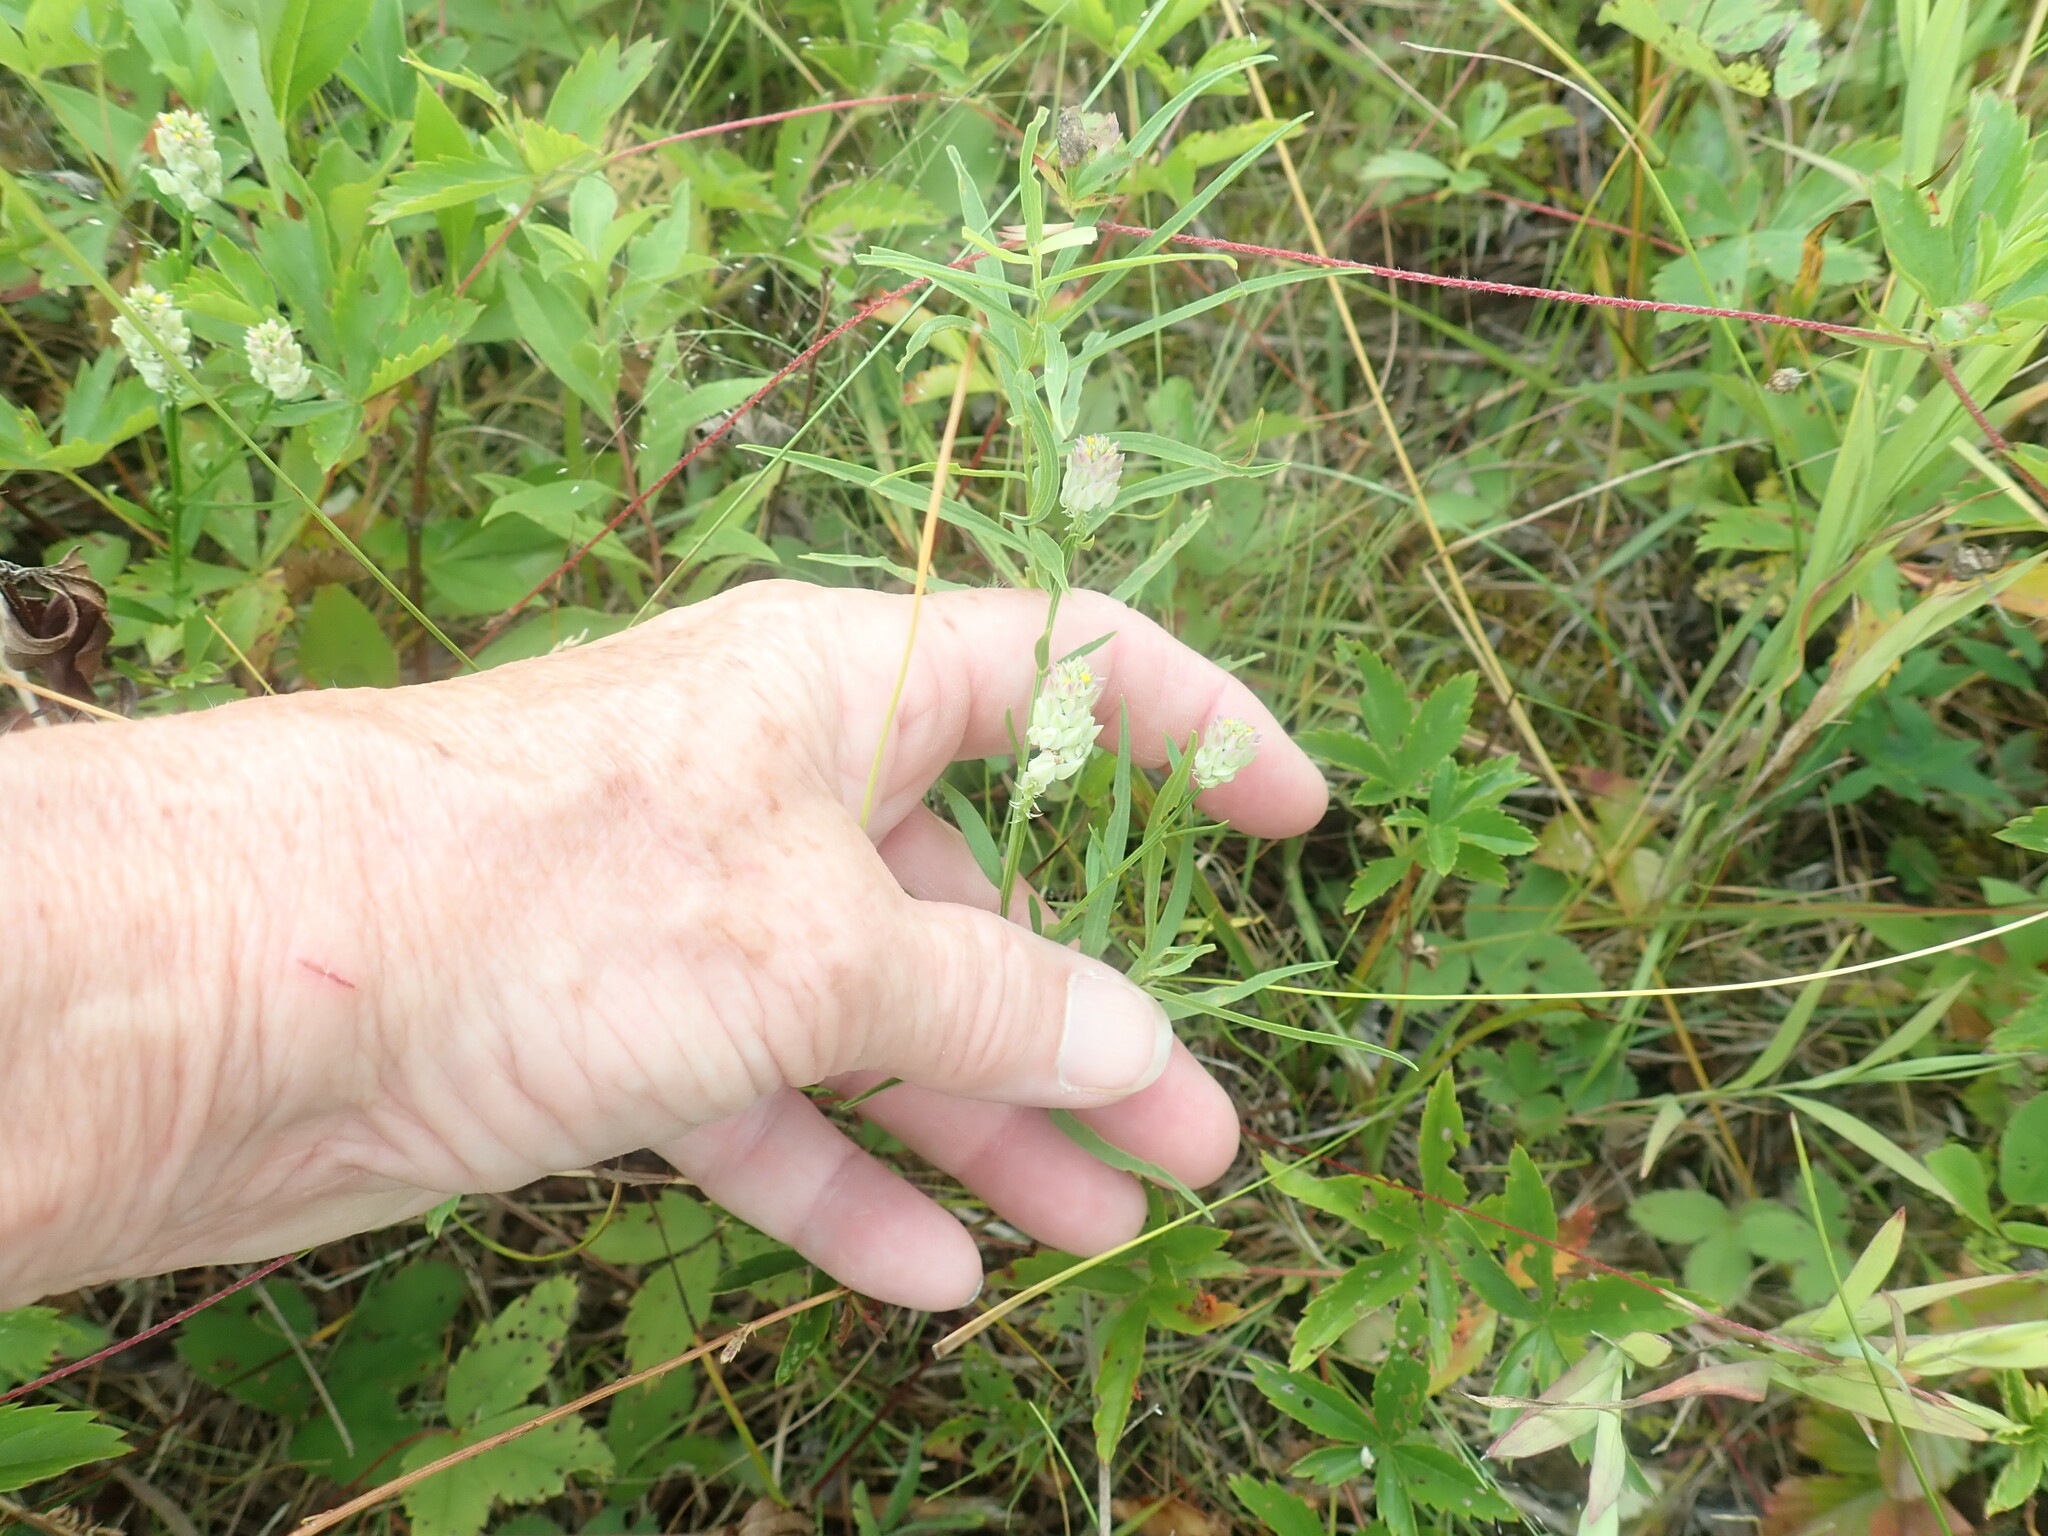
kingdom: Plantae
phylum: Tracheophyta
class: Magnoliopsida
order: Fabales
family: Polygalaceae
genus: Polygala
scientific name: Polygala sanguinea
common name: Blood milkwort
